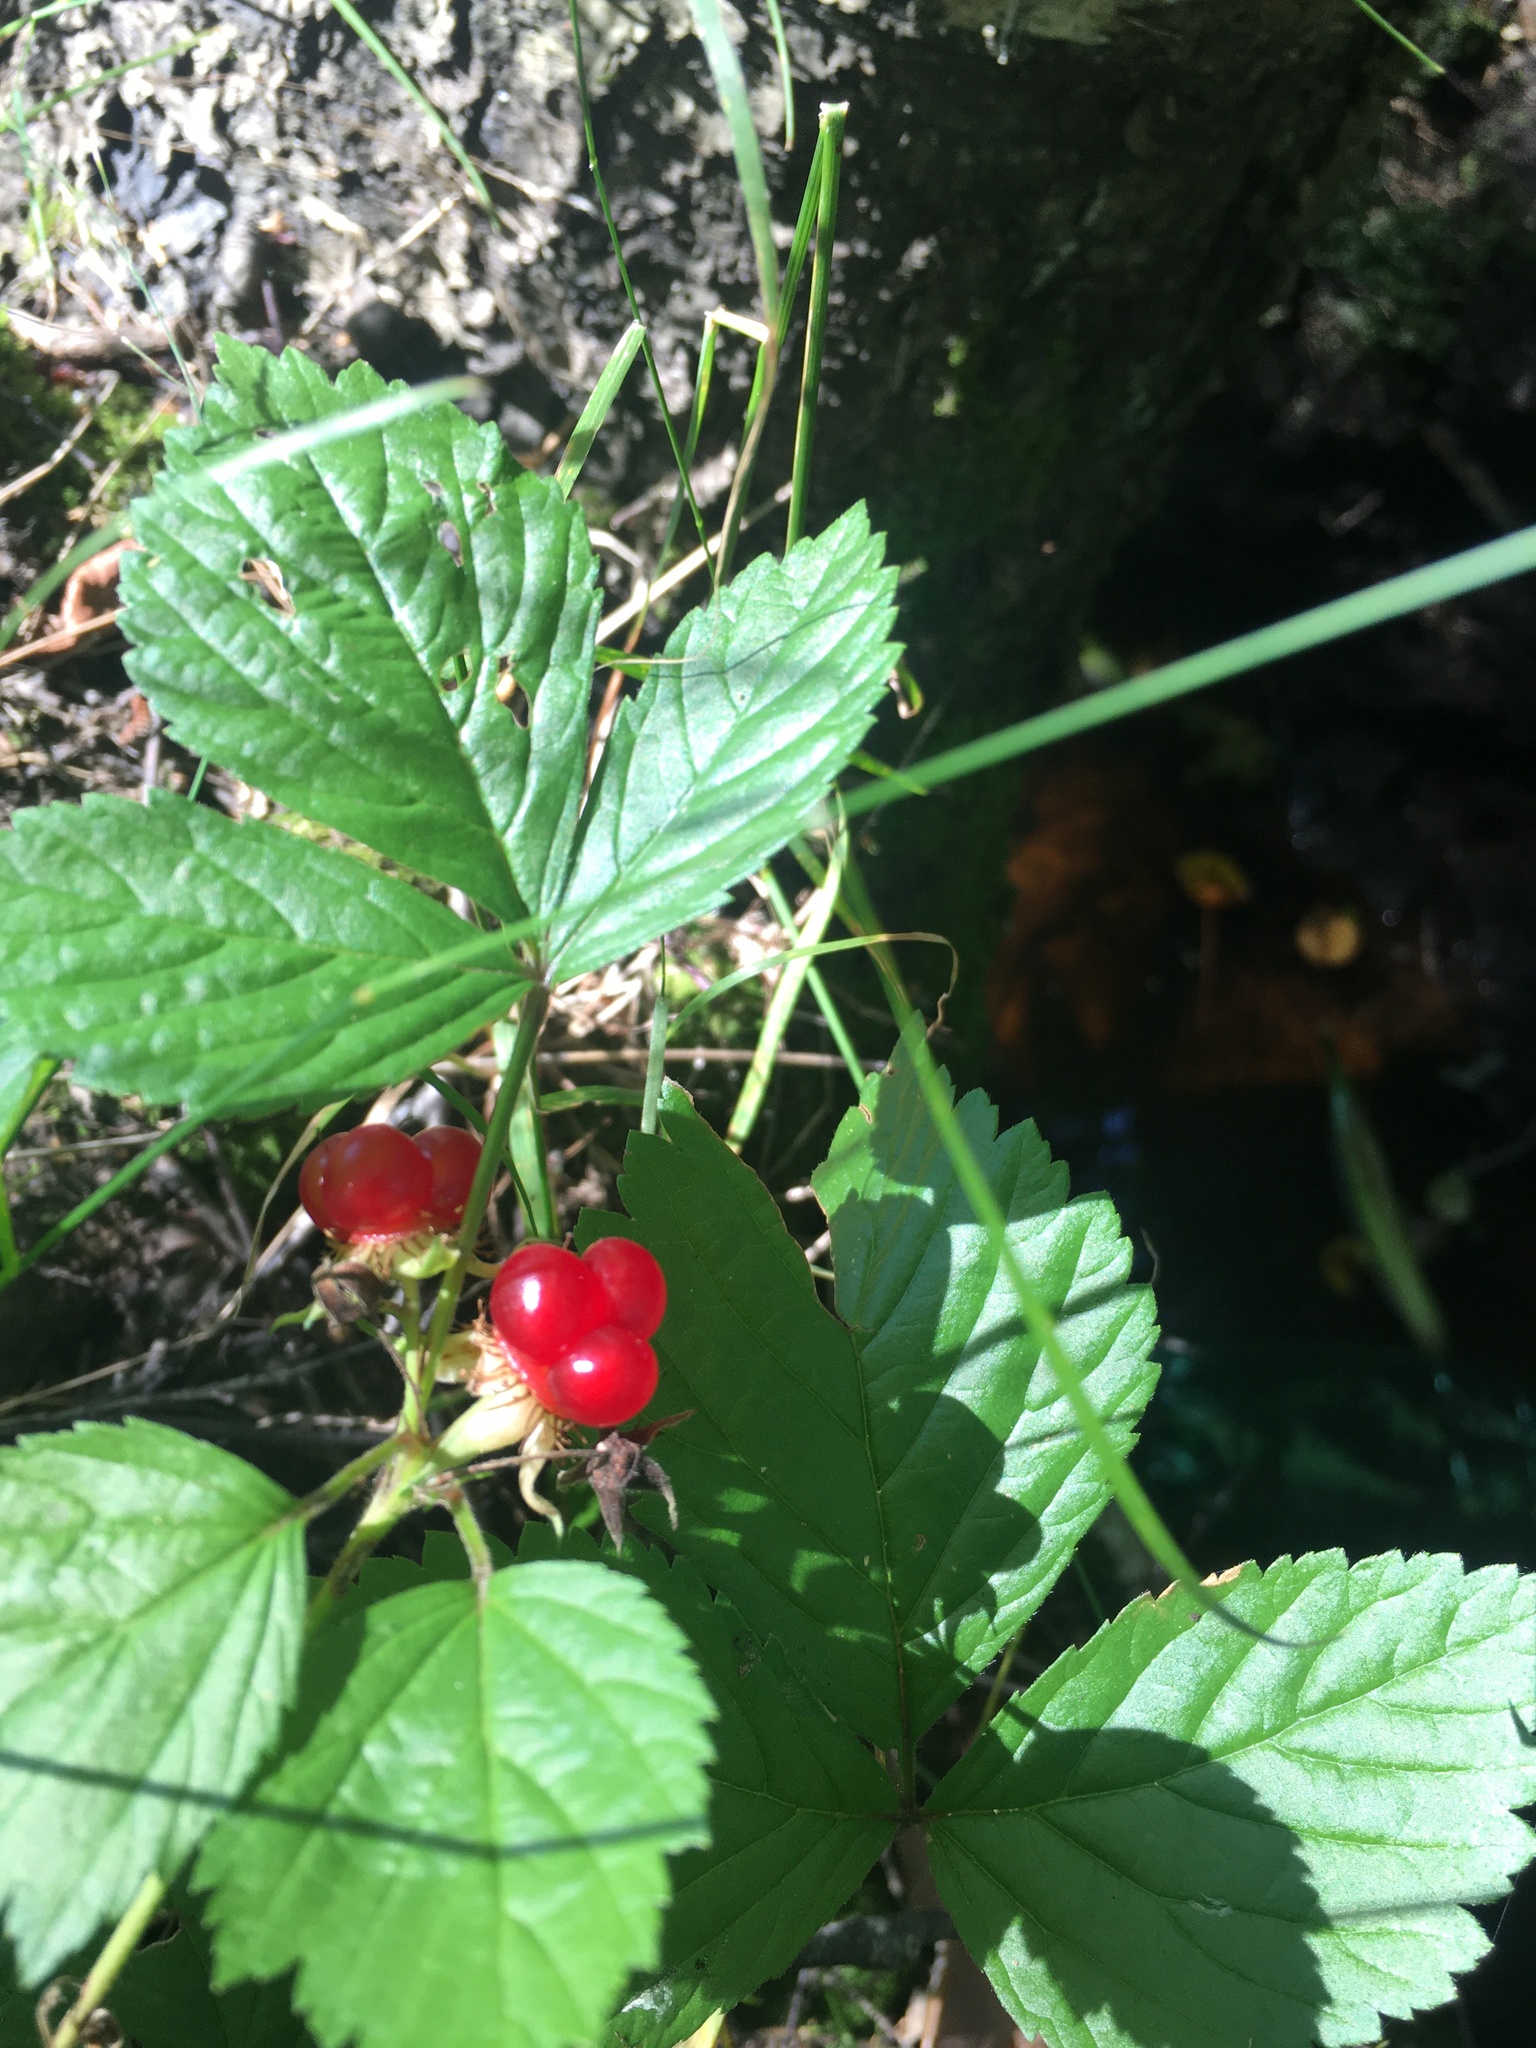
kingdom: Plantae
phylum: Tracheophyta
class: Magnoliopsida
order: Rosales
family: Rosaceae
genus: Rubus
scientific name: Rubus saxatilis
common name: Stone bramble
